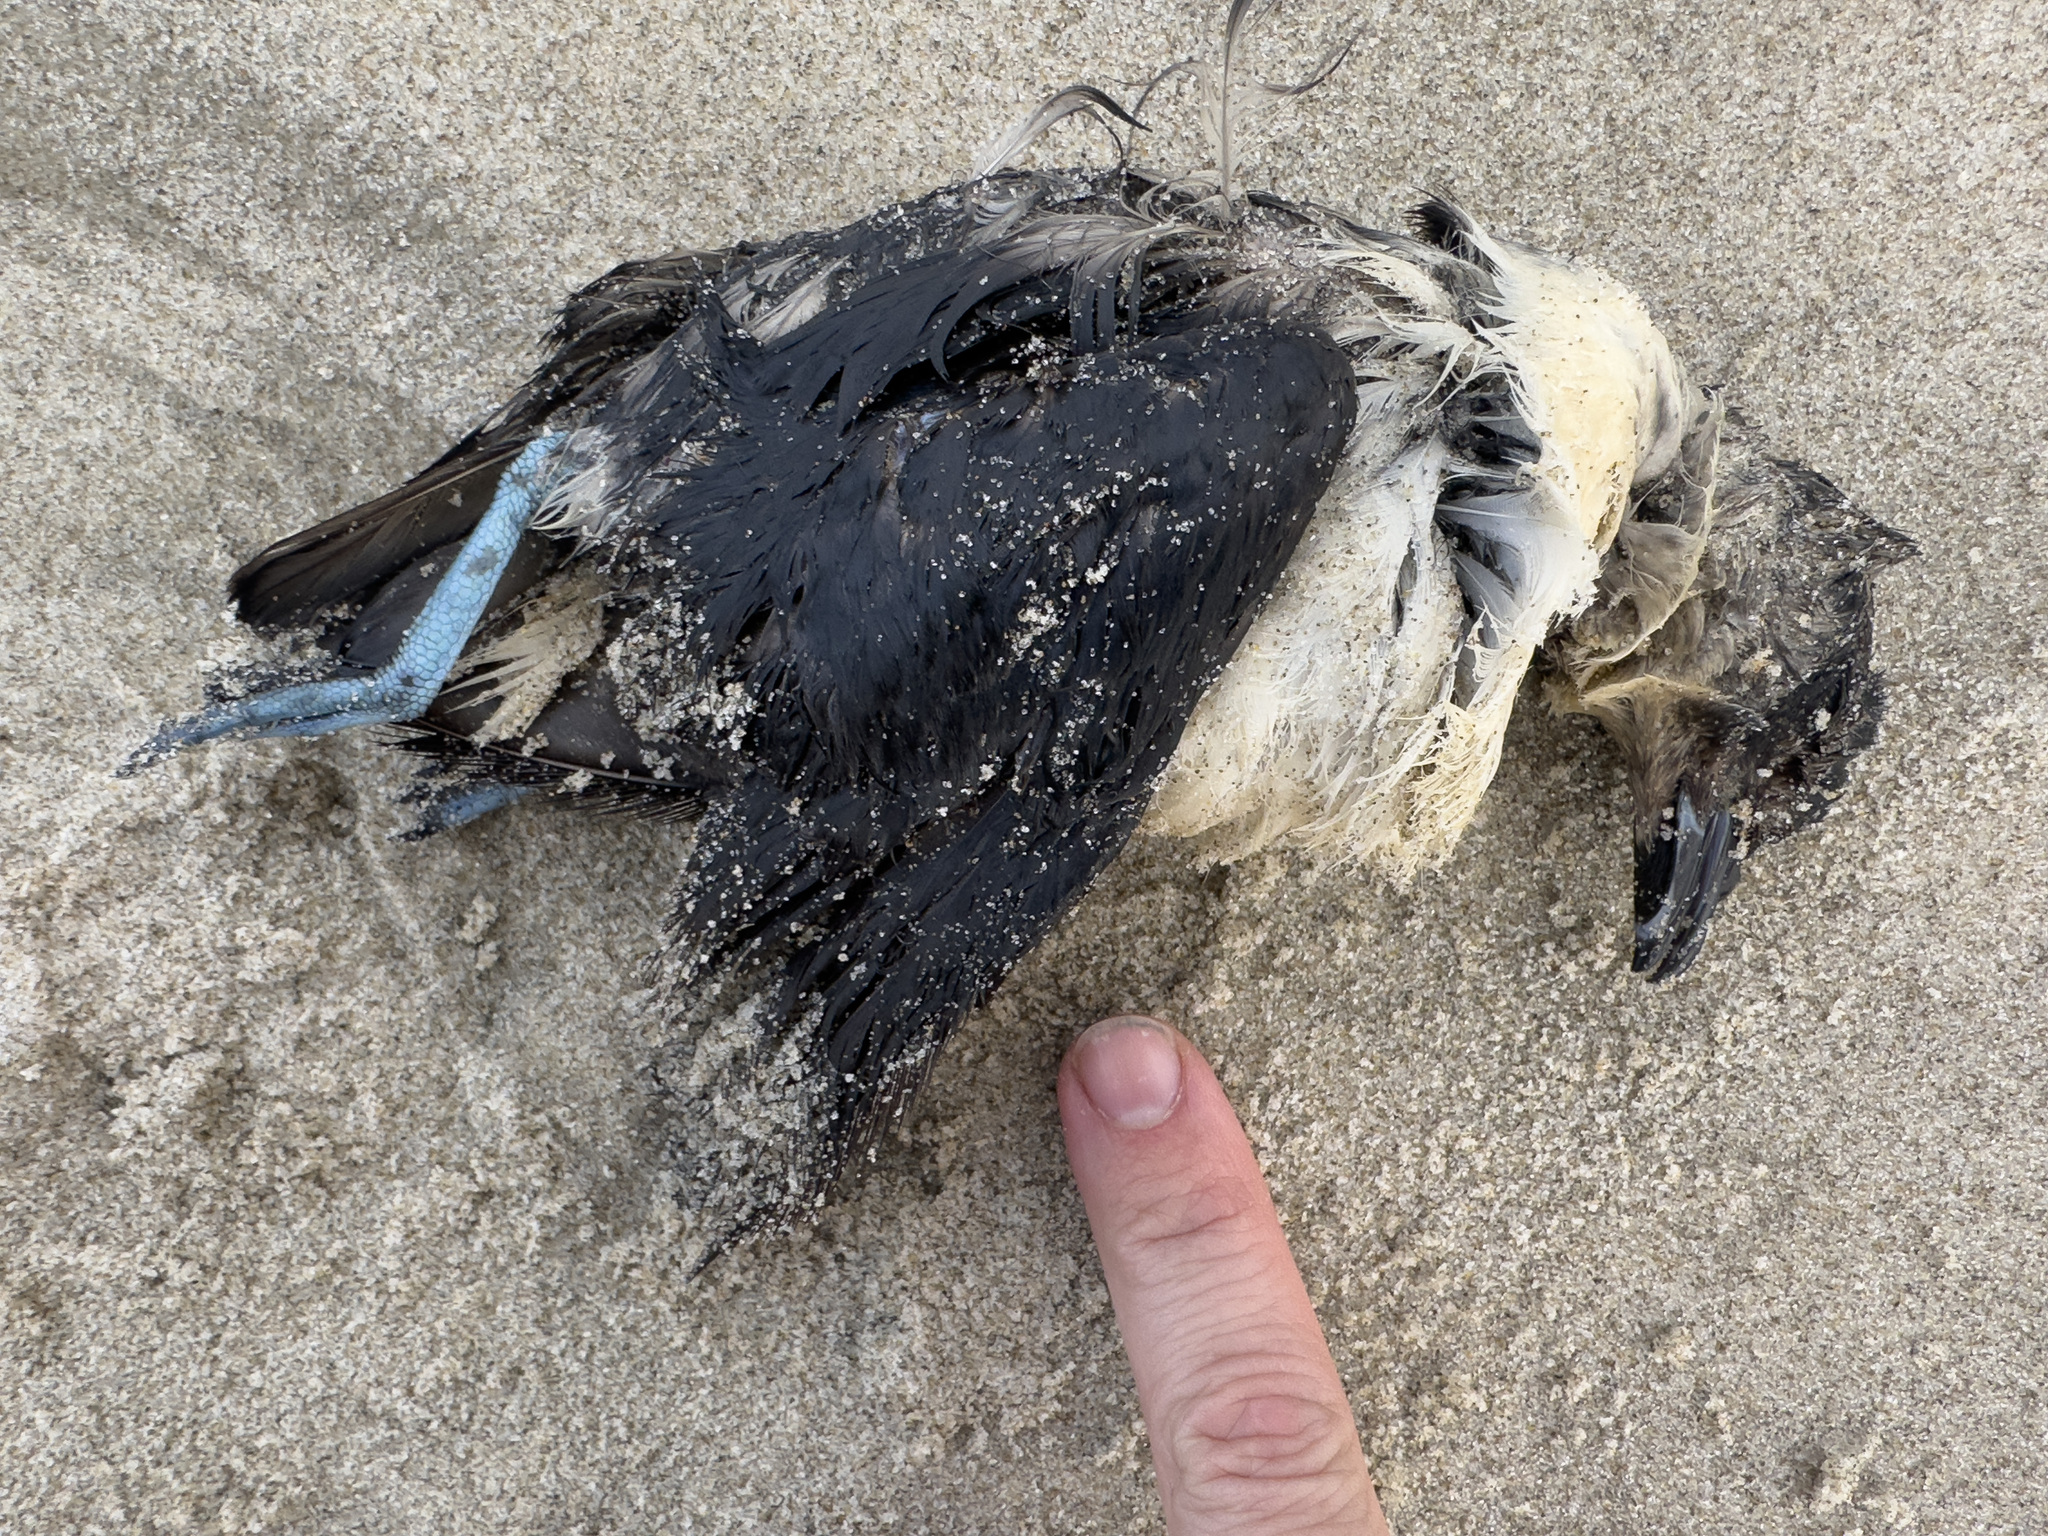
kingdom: Animalia
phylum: Chordata
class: Aves
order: Procellariiformes
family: Pelecanoididae
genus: Pelecanoides
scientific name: Pelecanoides urinatrix
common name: Common diving-petrel
